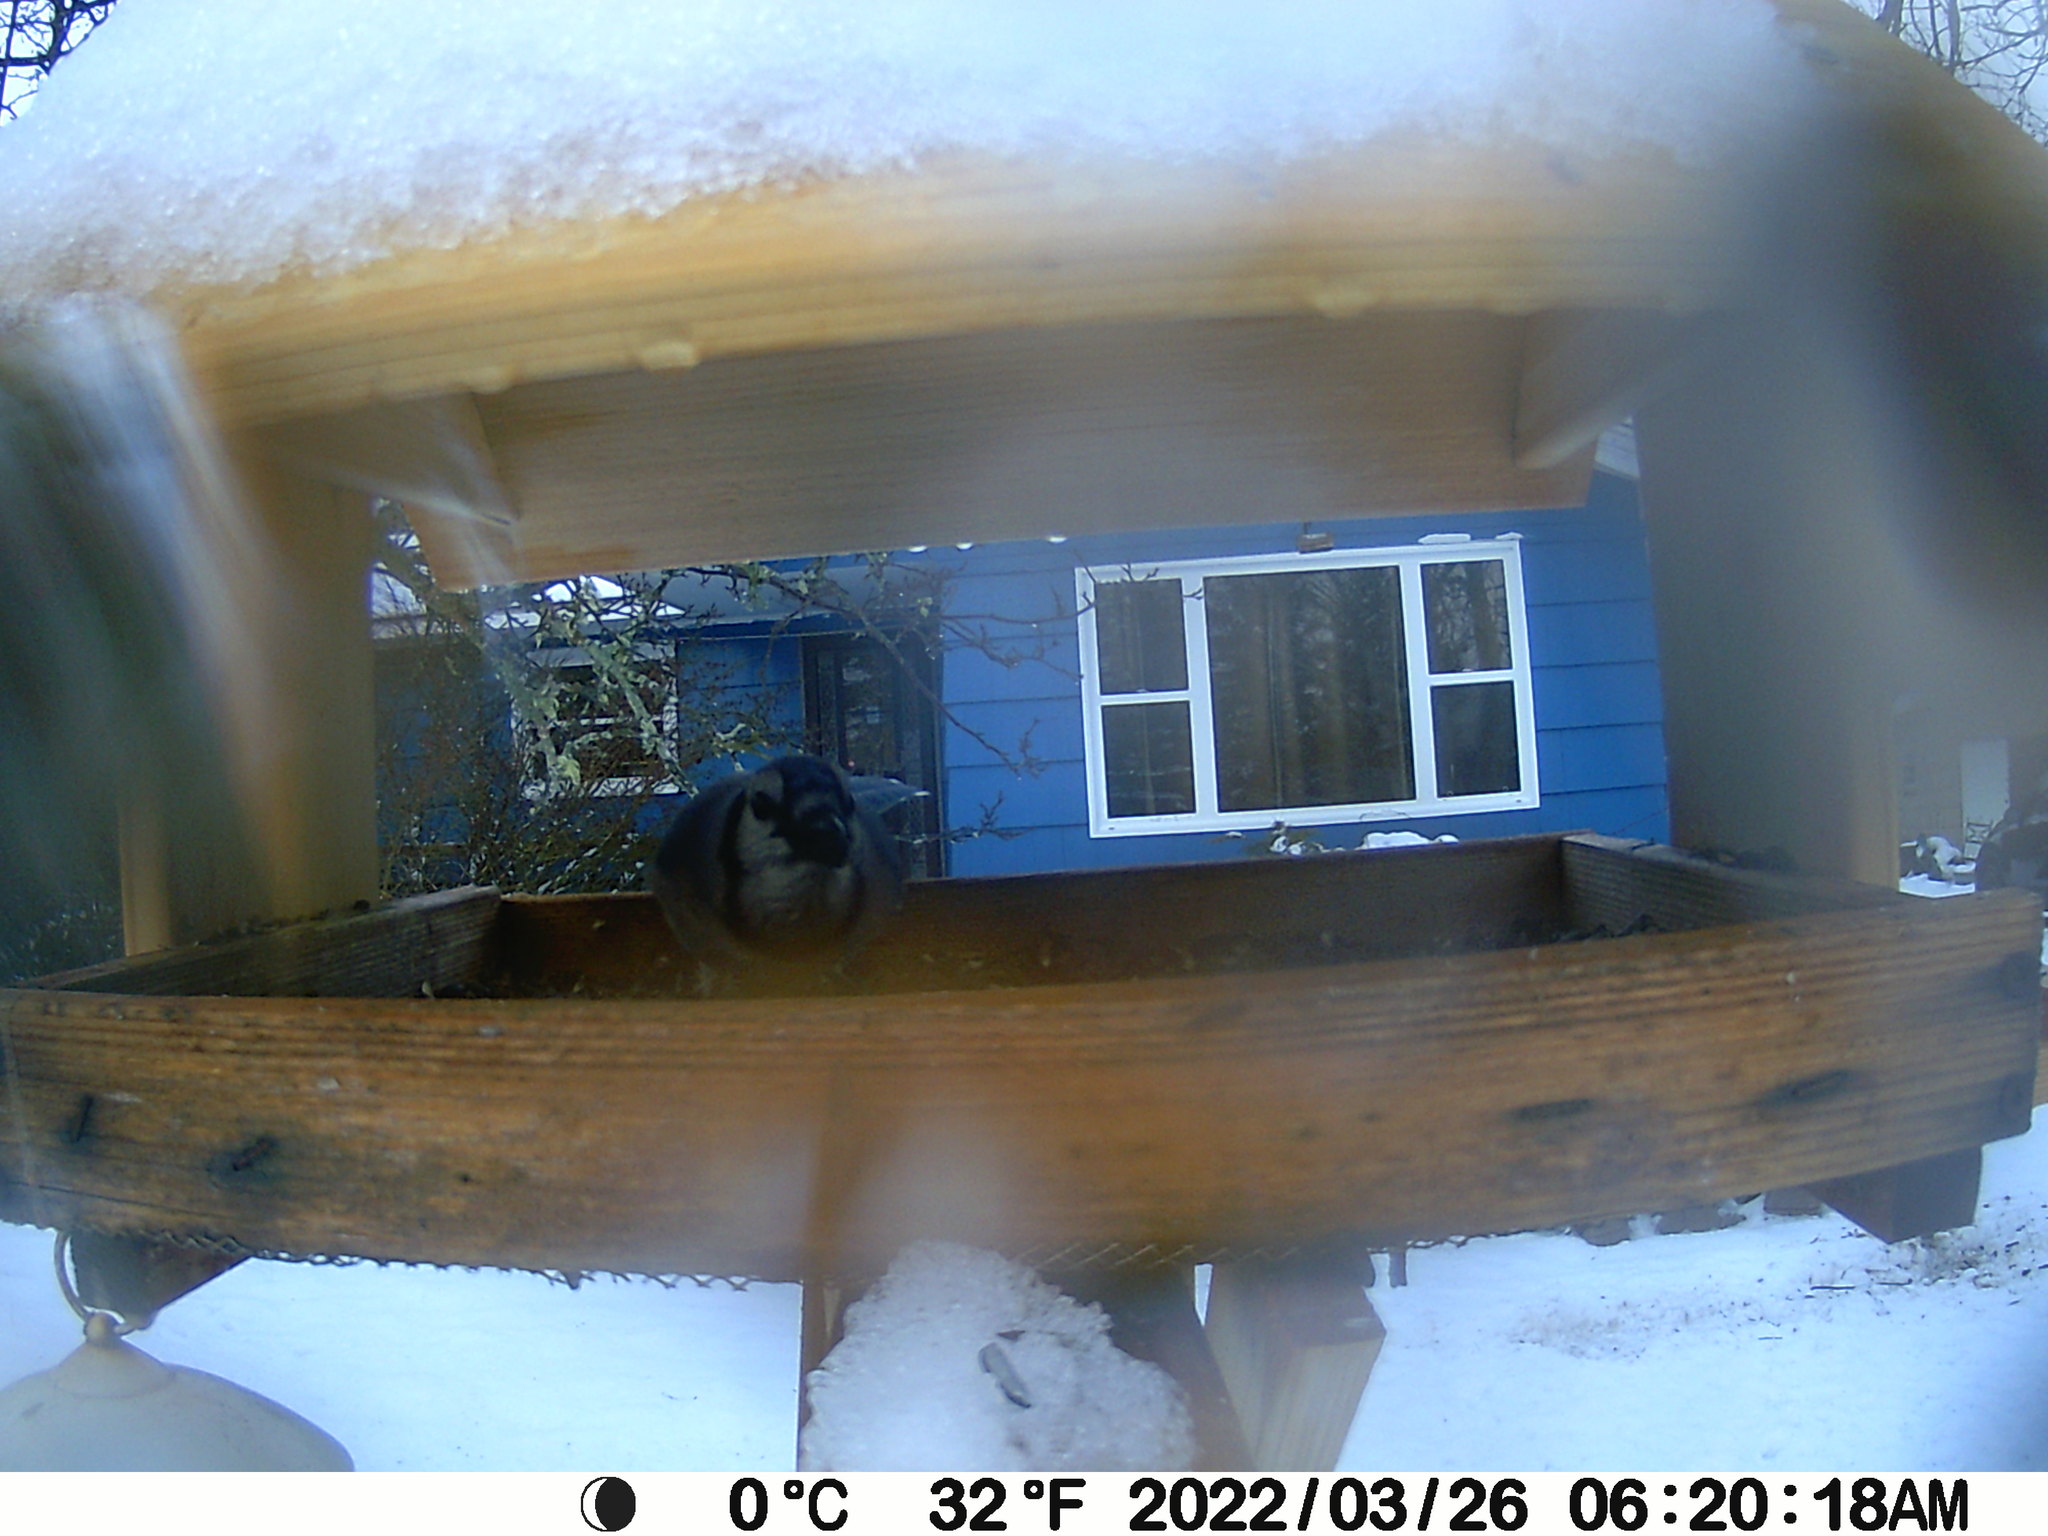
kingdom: Animalia
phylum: Chordata
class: Aves
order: Passeriformes
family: Corvidae
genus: Cyanocitta
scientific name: Cyanocitta cristata
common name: Blue jay
